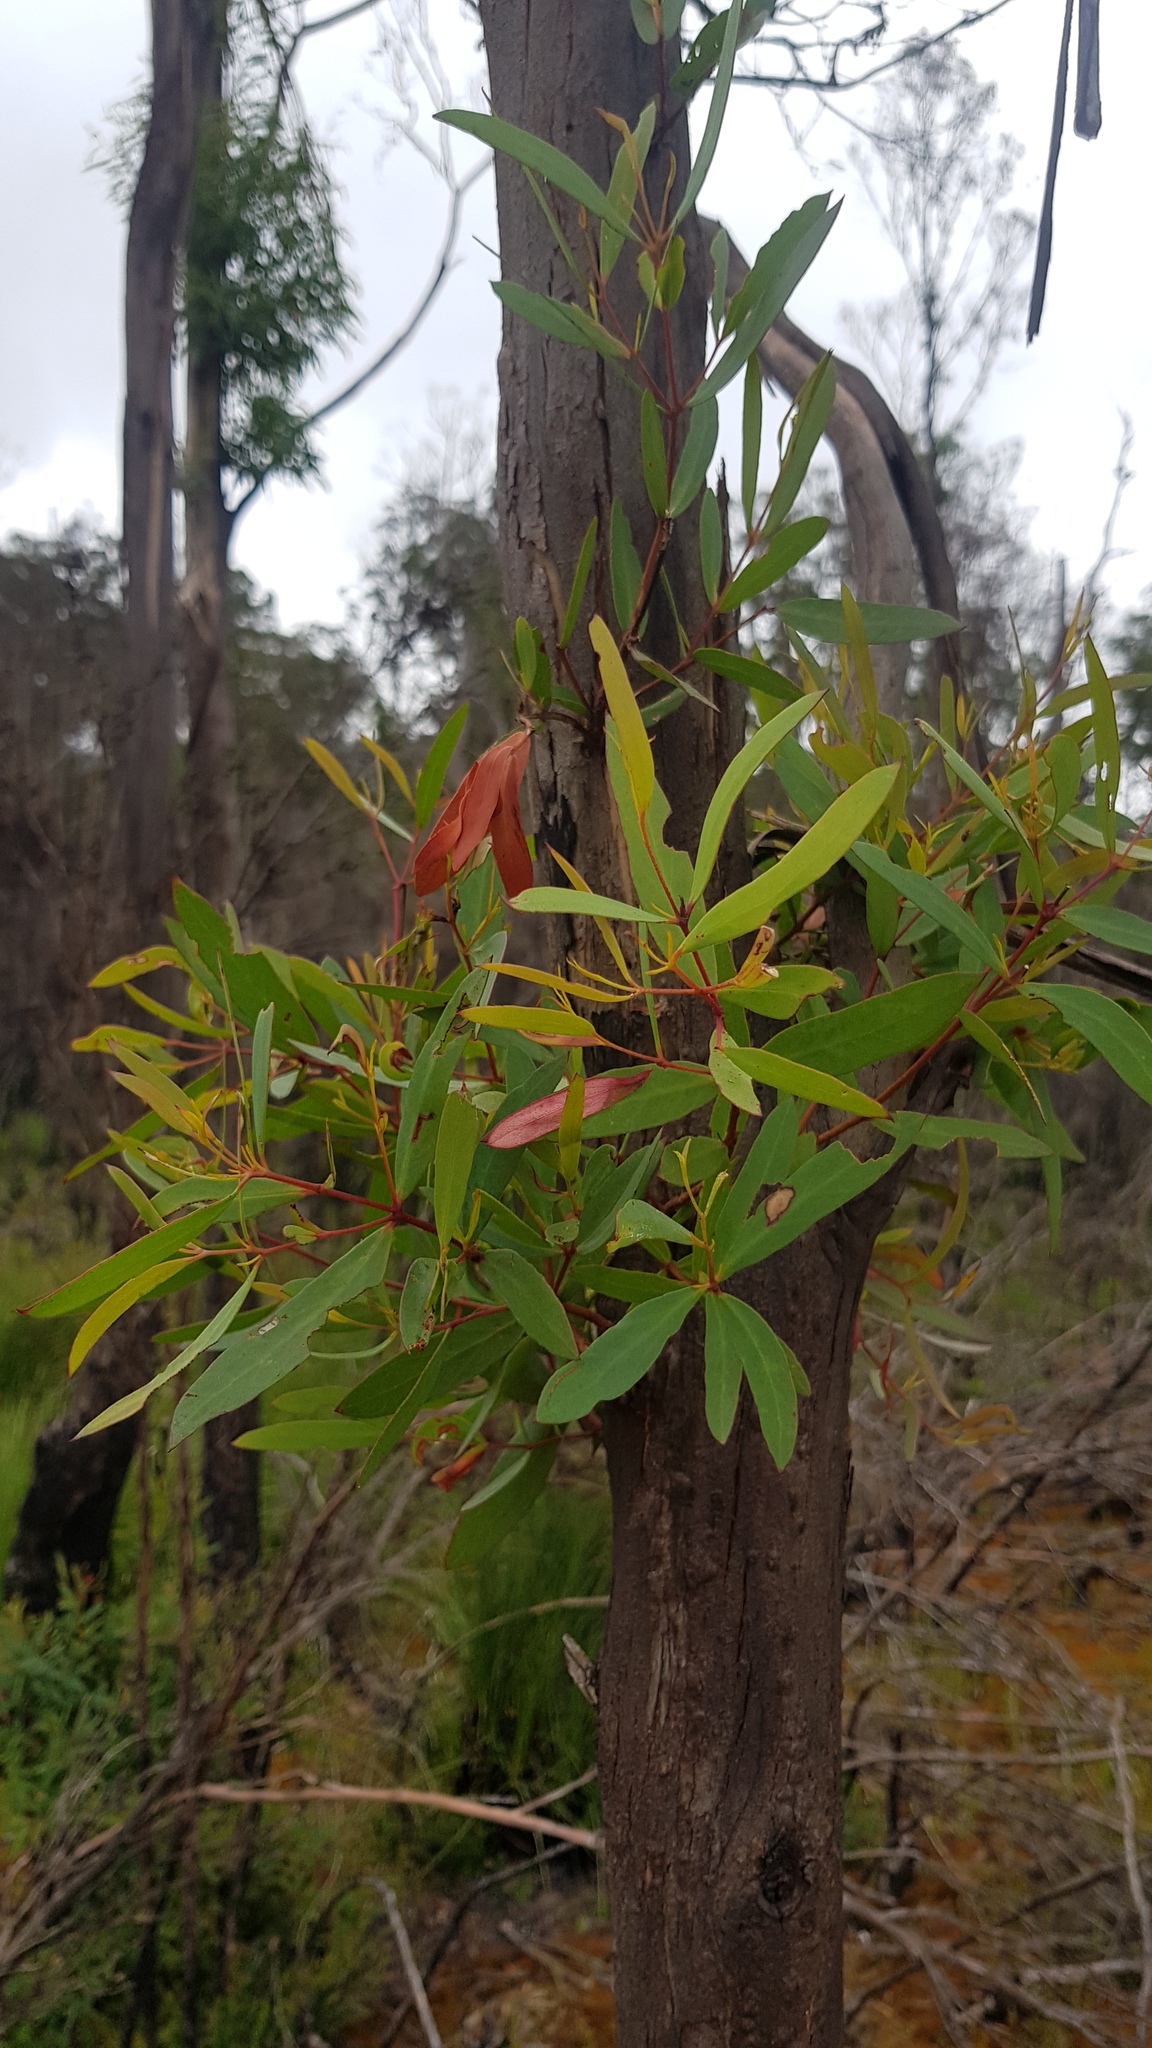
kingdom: Plantae
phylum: Tracheophyta
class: Magnoliopsida
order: Myrtales
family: Myrtaceae
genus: Eucalyptus
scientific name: Eucalyptus nitida
